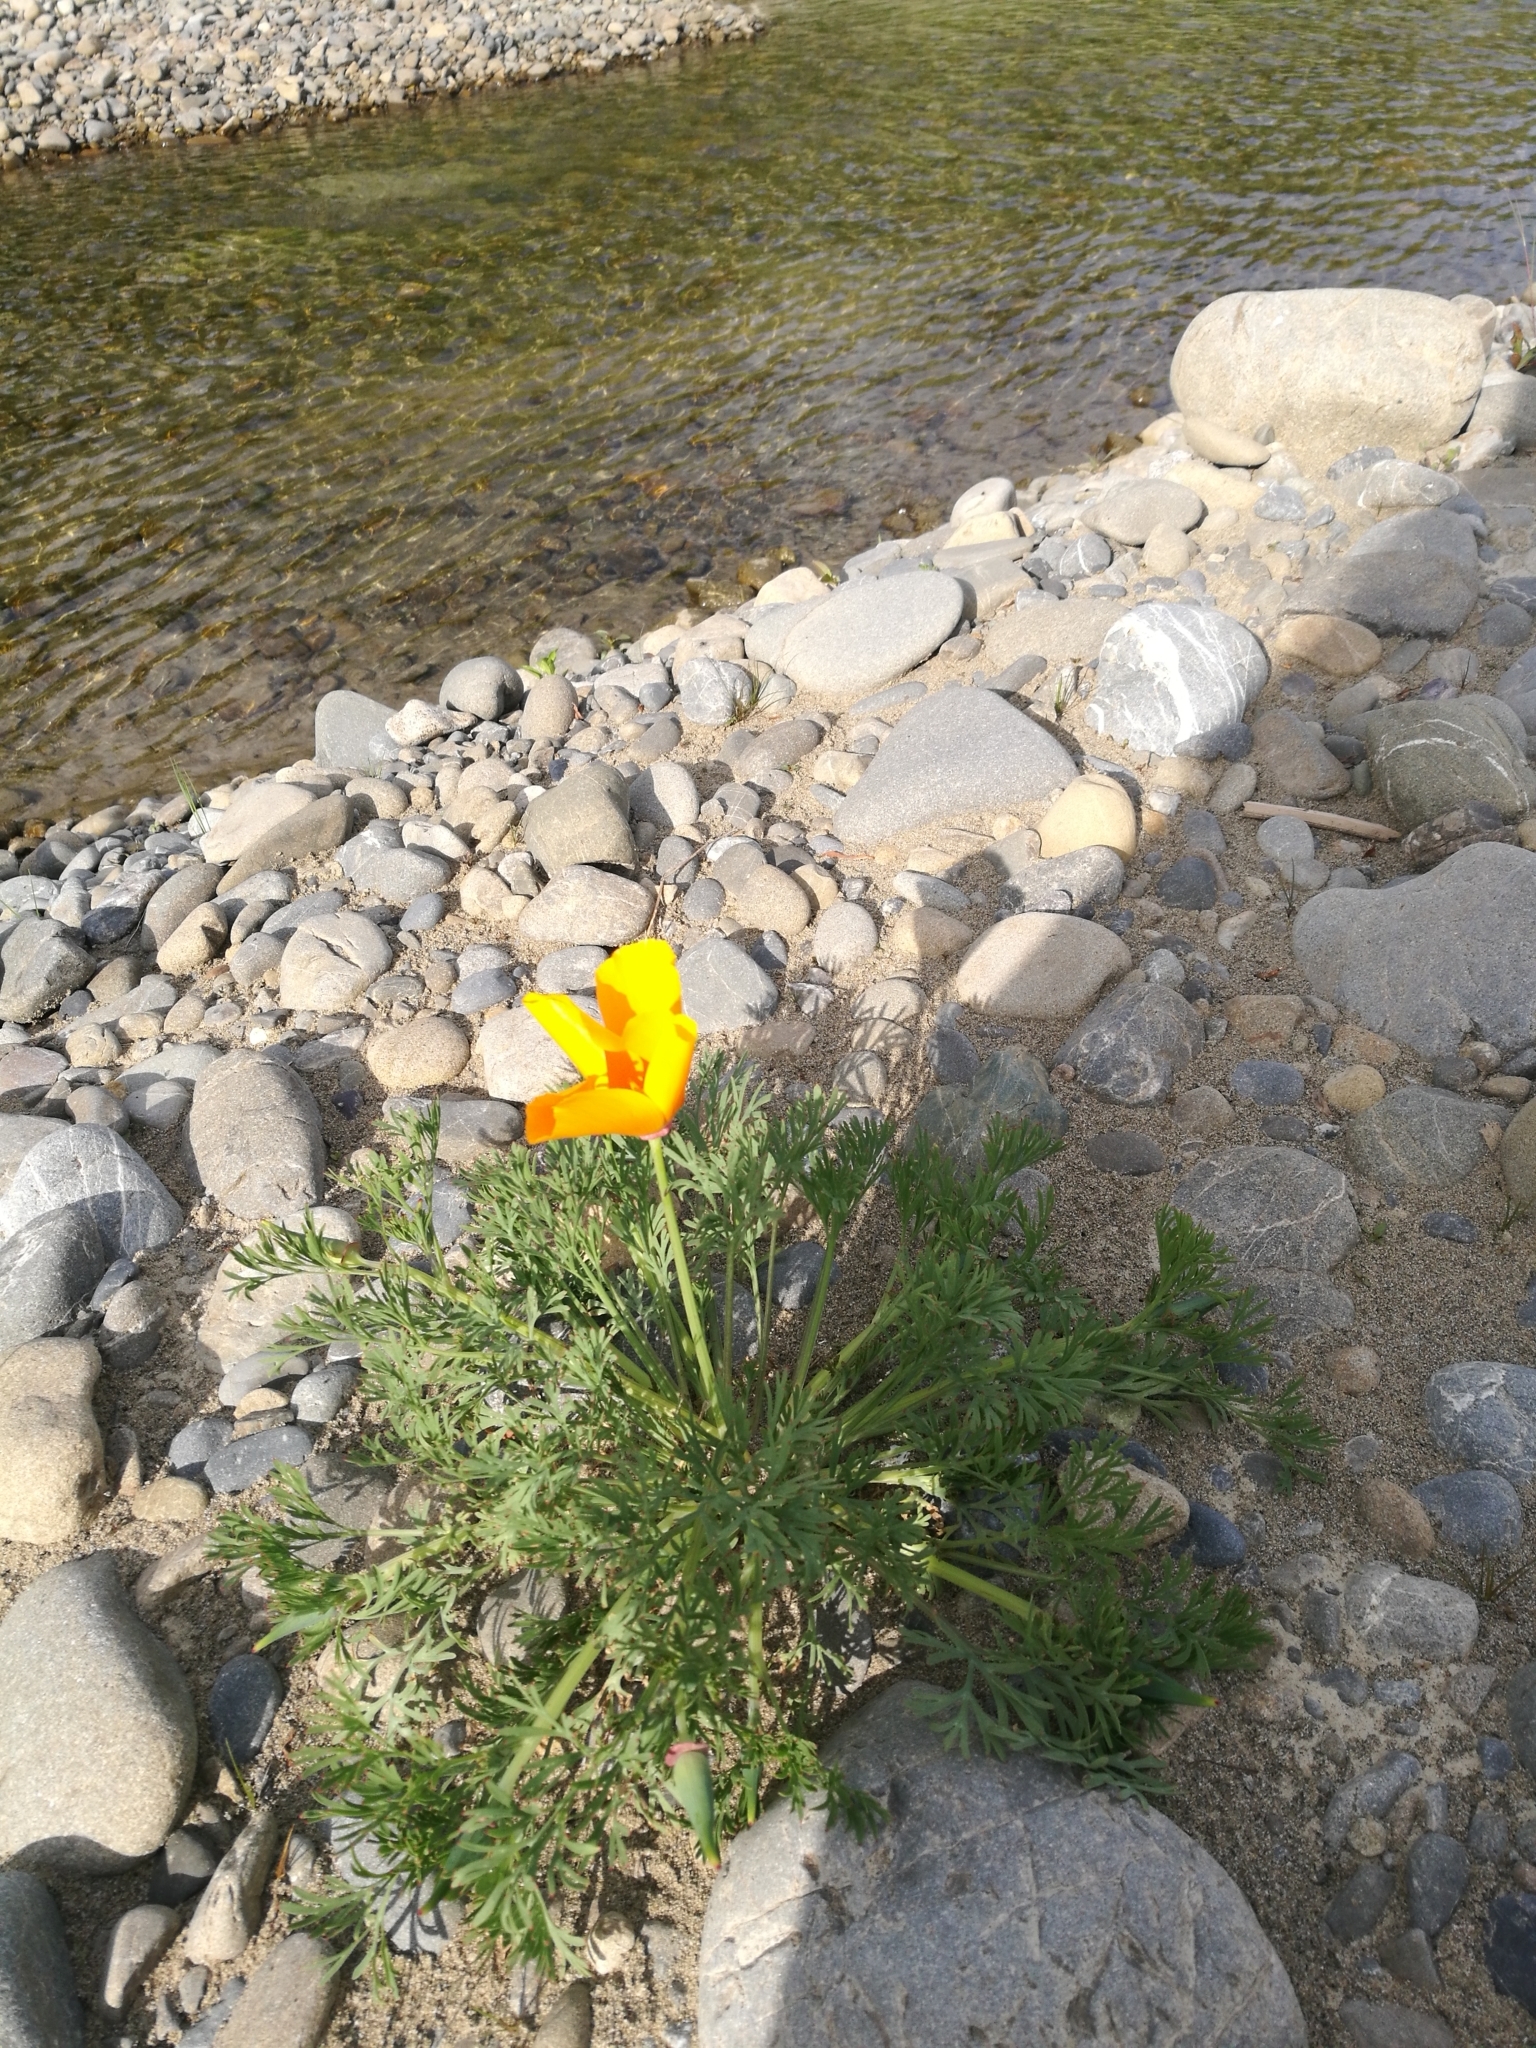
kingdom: Plantae
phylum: Tracheophyta
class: Magnoliopsida
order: Ranunculales
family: Papaveraceae
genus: Eschscholzia
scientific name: Eschscholzia californica
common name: California poppy
